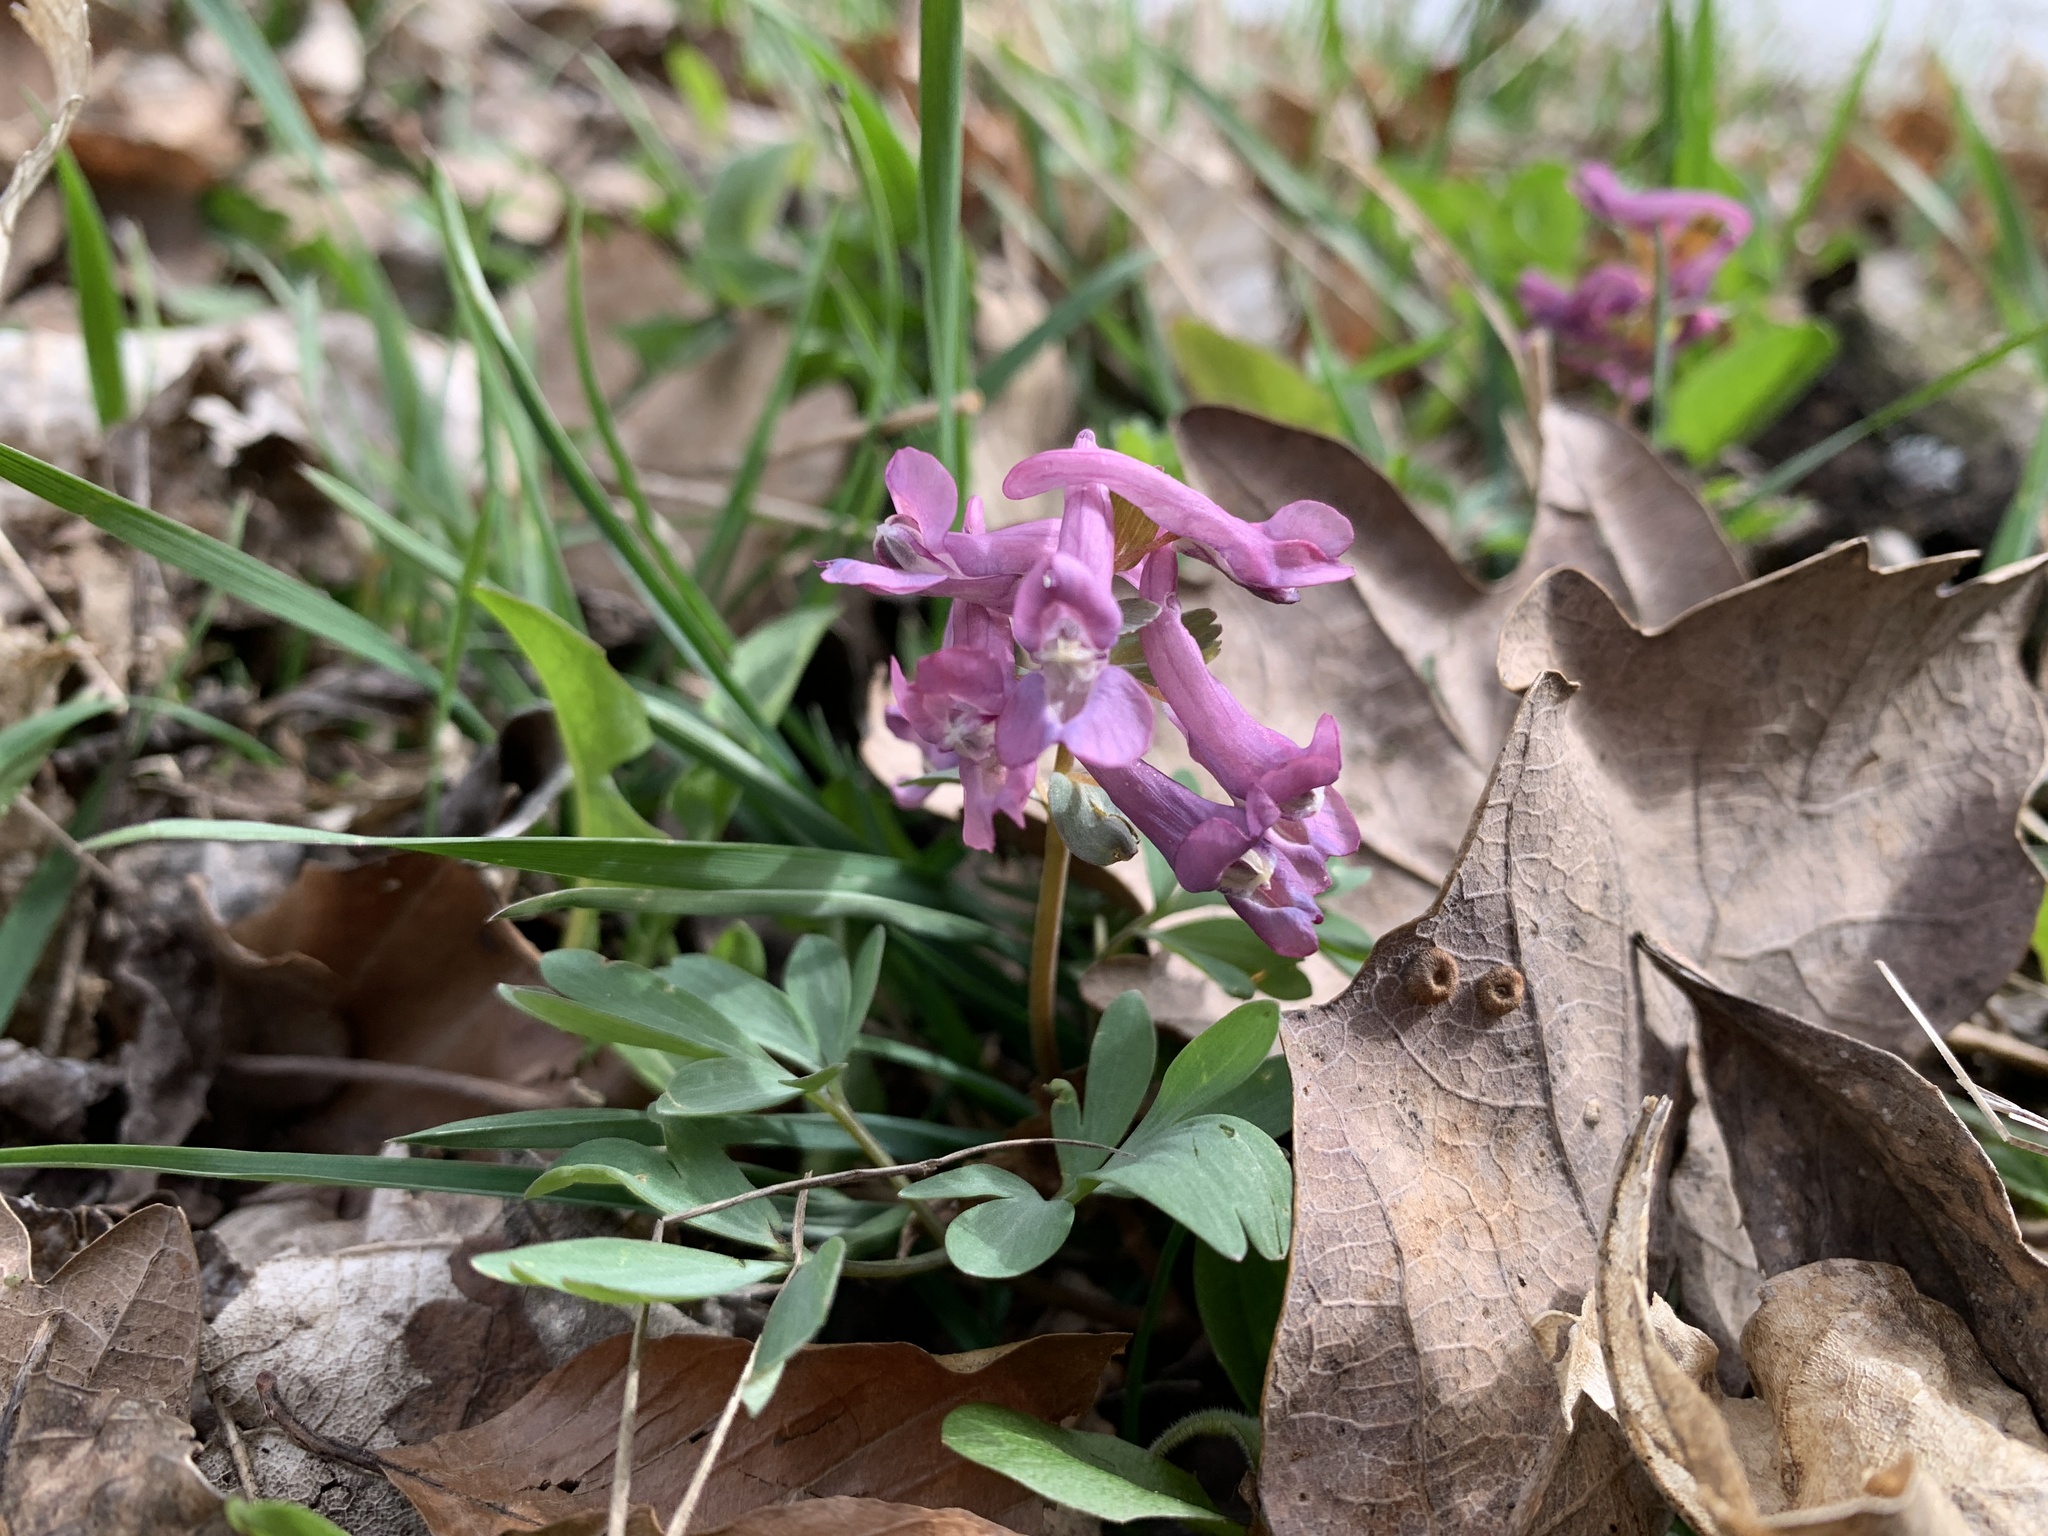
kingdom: Plantae
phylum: Tracheophyta
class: Magnoliopsida
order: Ranunculales
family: Papaveraceae
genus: Corydalis
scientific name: Corydalis solida
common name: Bird-in-a-bush
